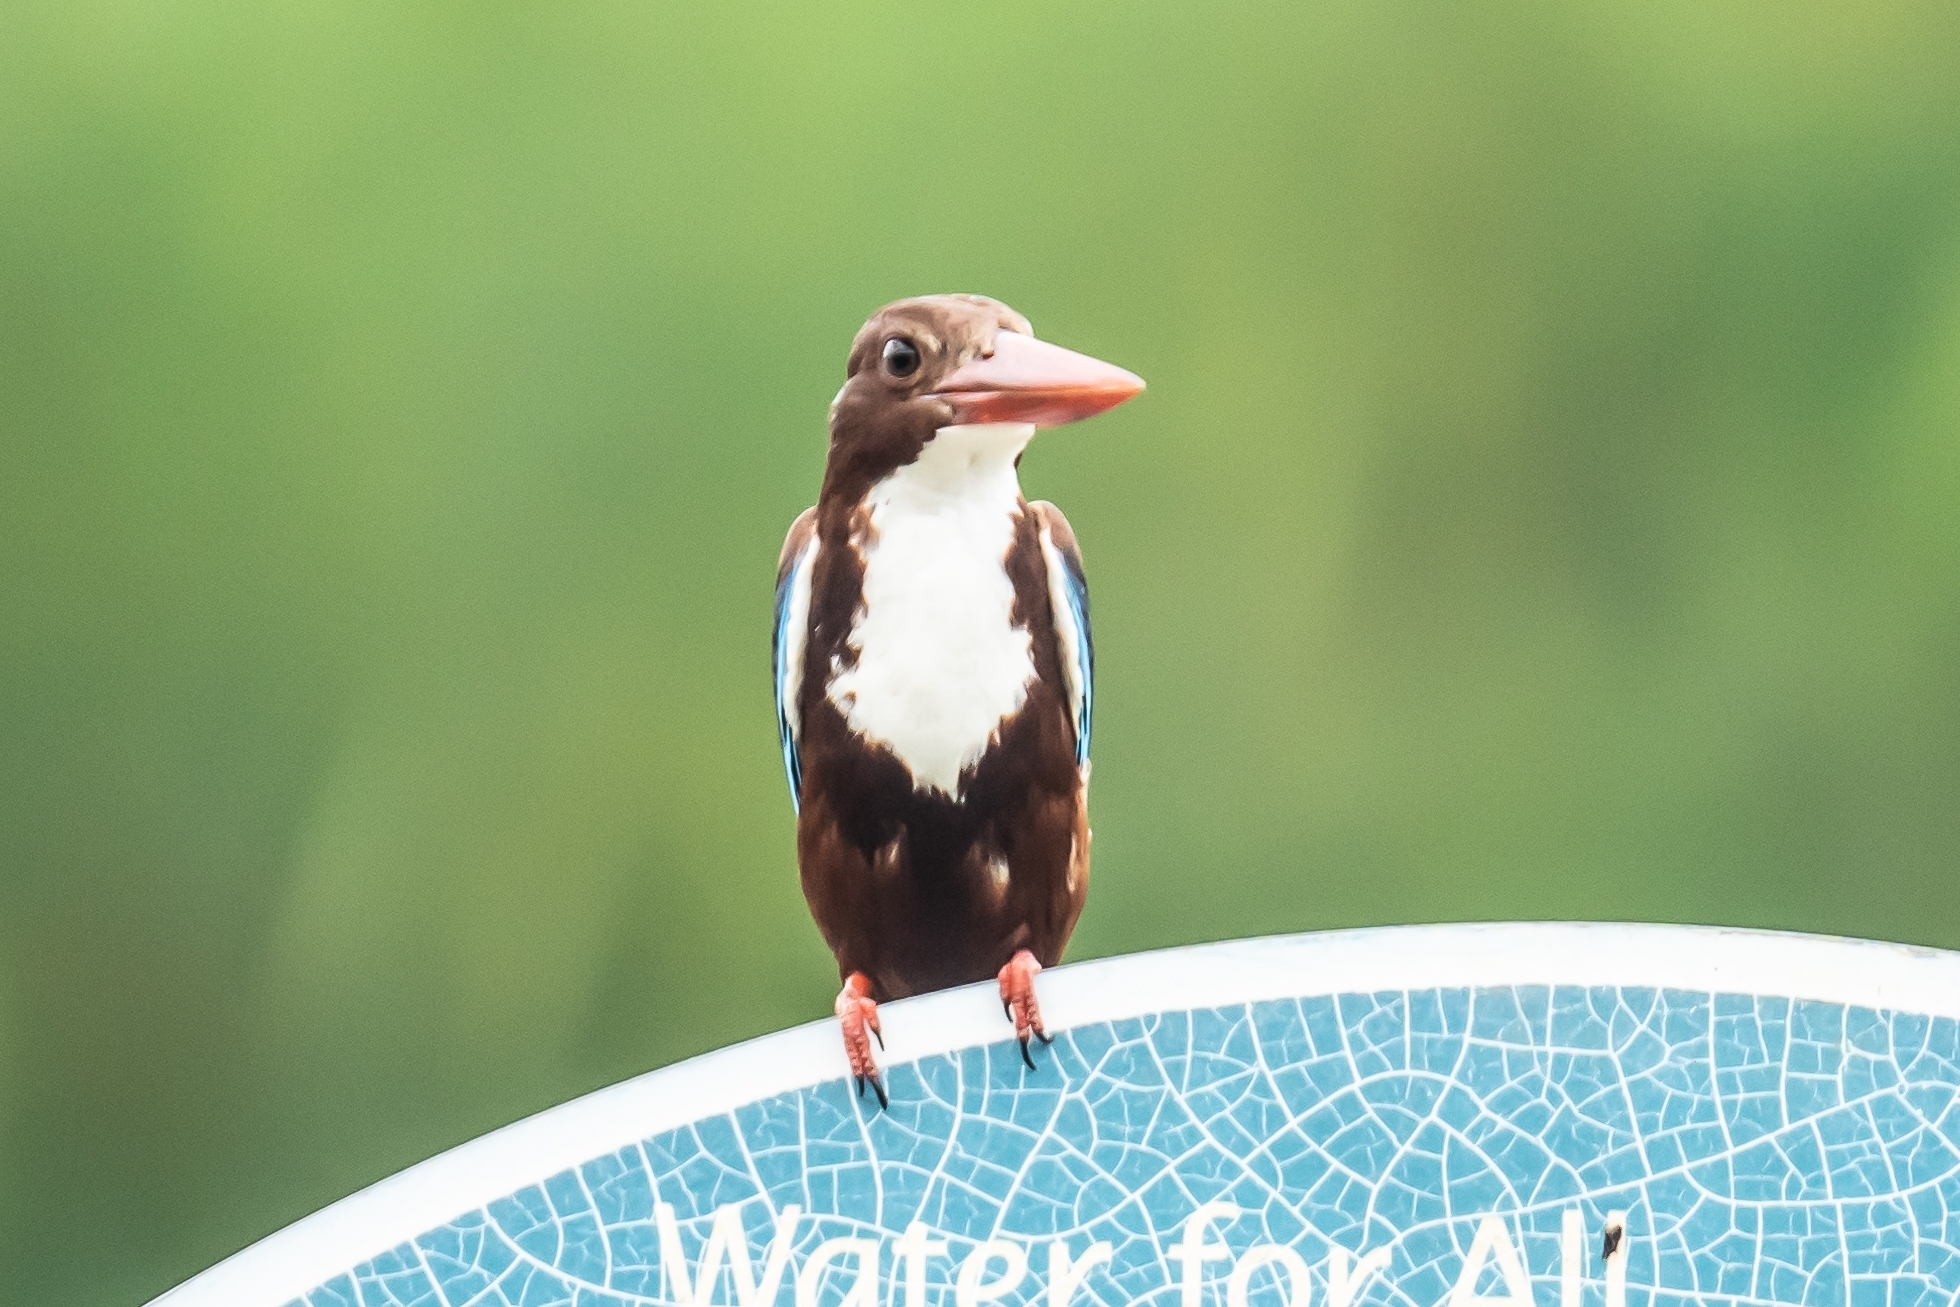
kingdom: Animalia
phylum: Chordata
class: Aves
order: Coraciiformes
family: Alcedinidae
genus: Halcyon
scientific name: Halcyon smyrnensis
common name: White-throated kingfisher
